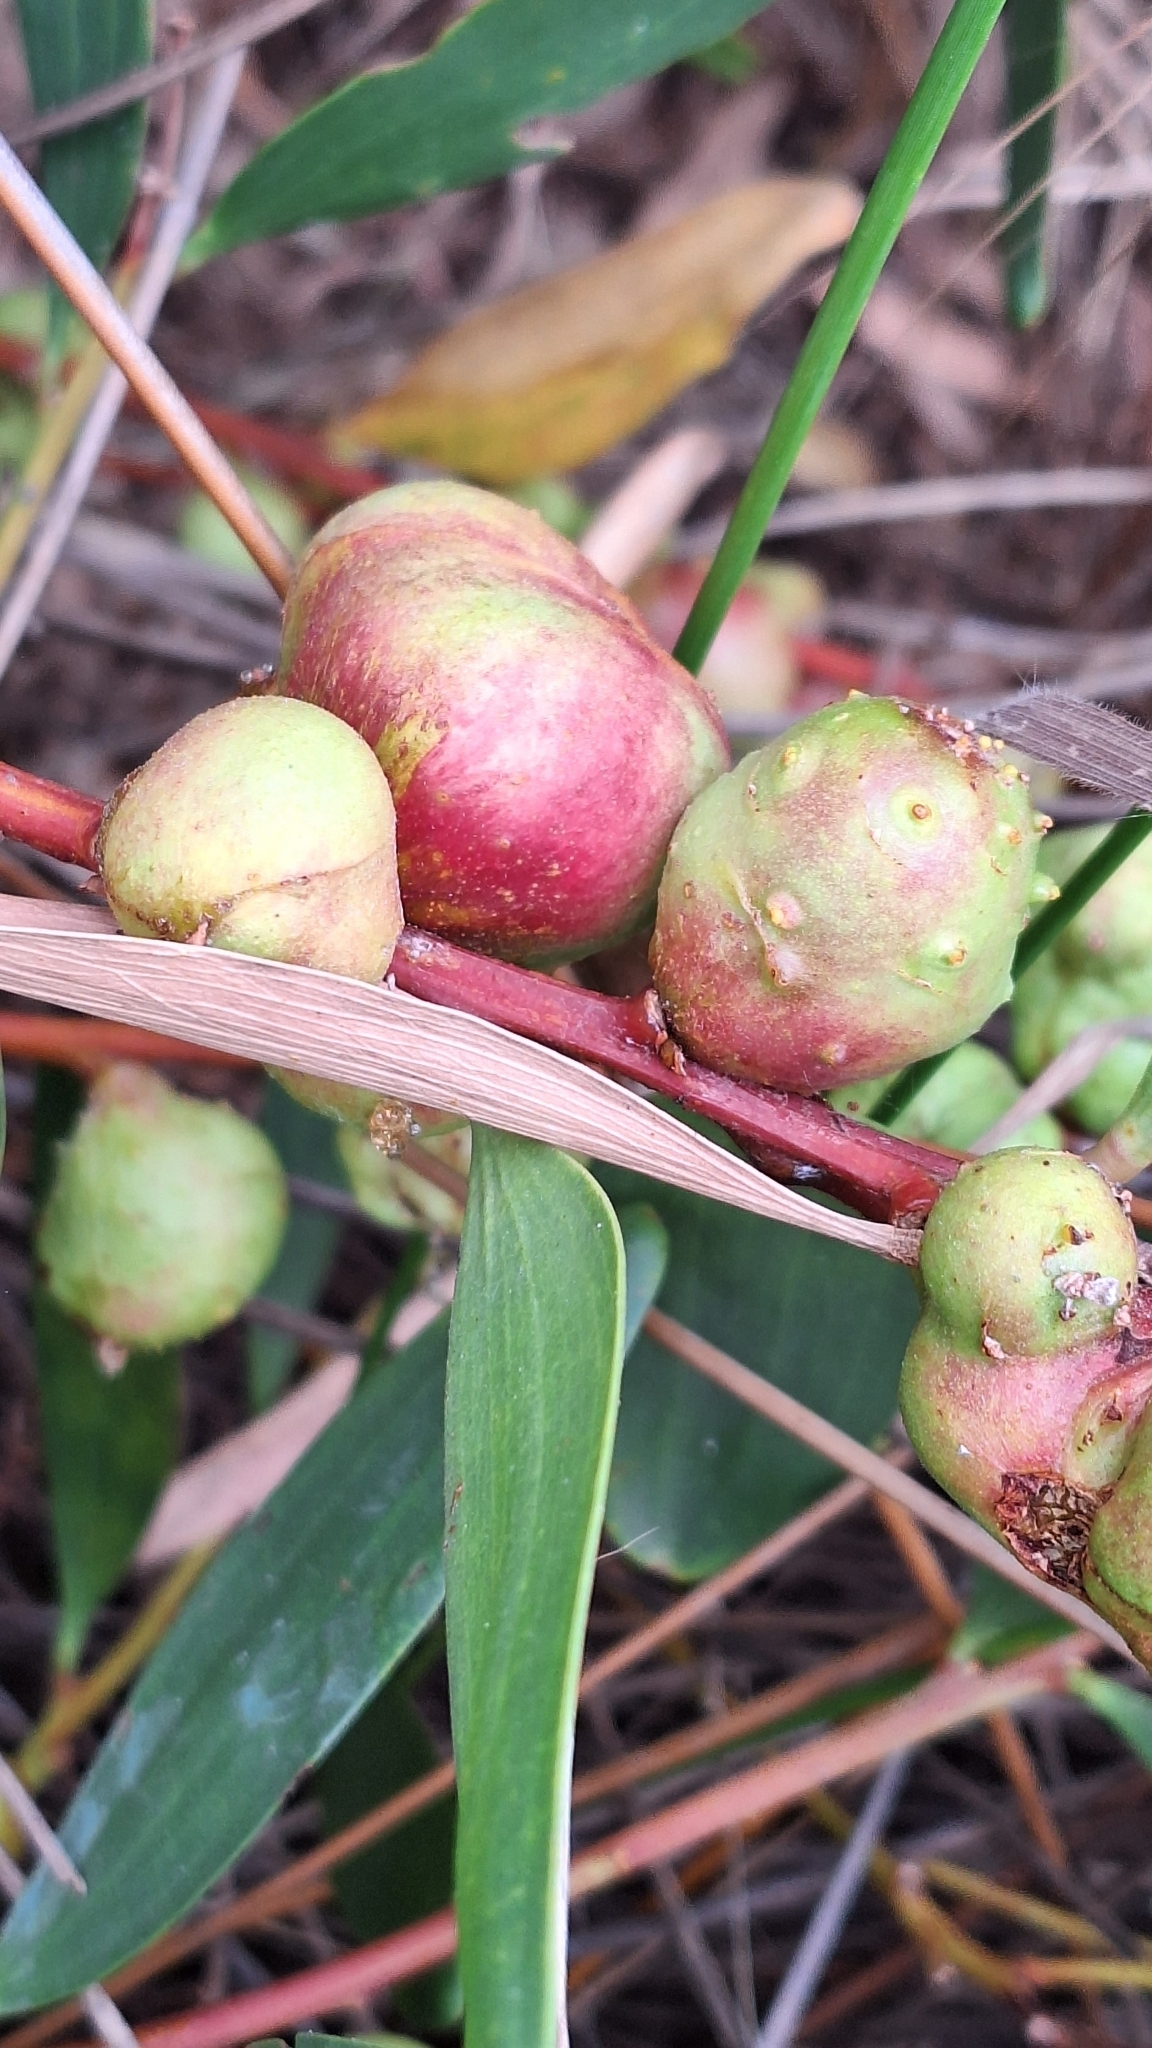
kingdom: Animalia
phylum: Arthropoda
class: Insecta
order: Hymenoptera
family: Pteromalidae
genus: Trichilogaster
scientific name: Trichilogaster acaciaelongifoliae
